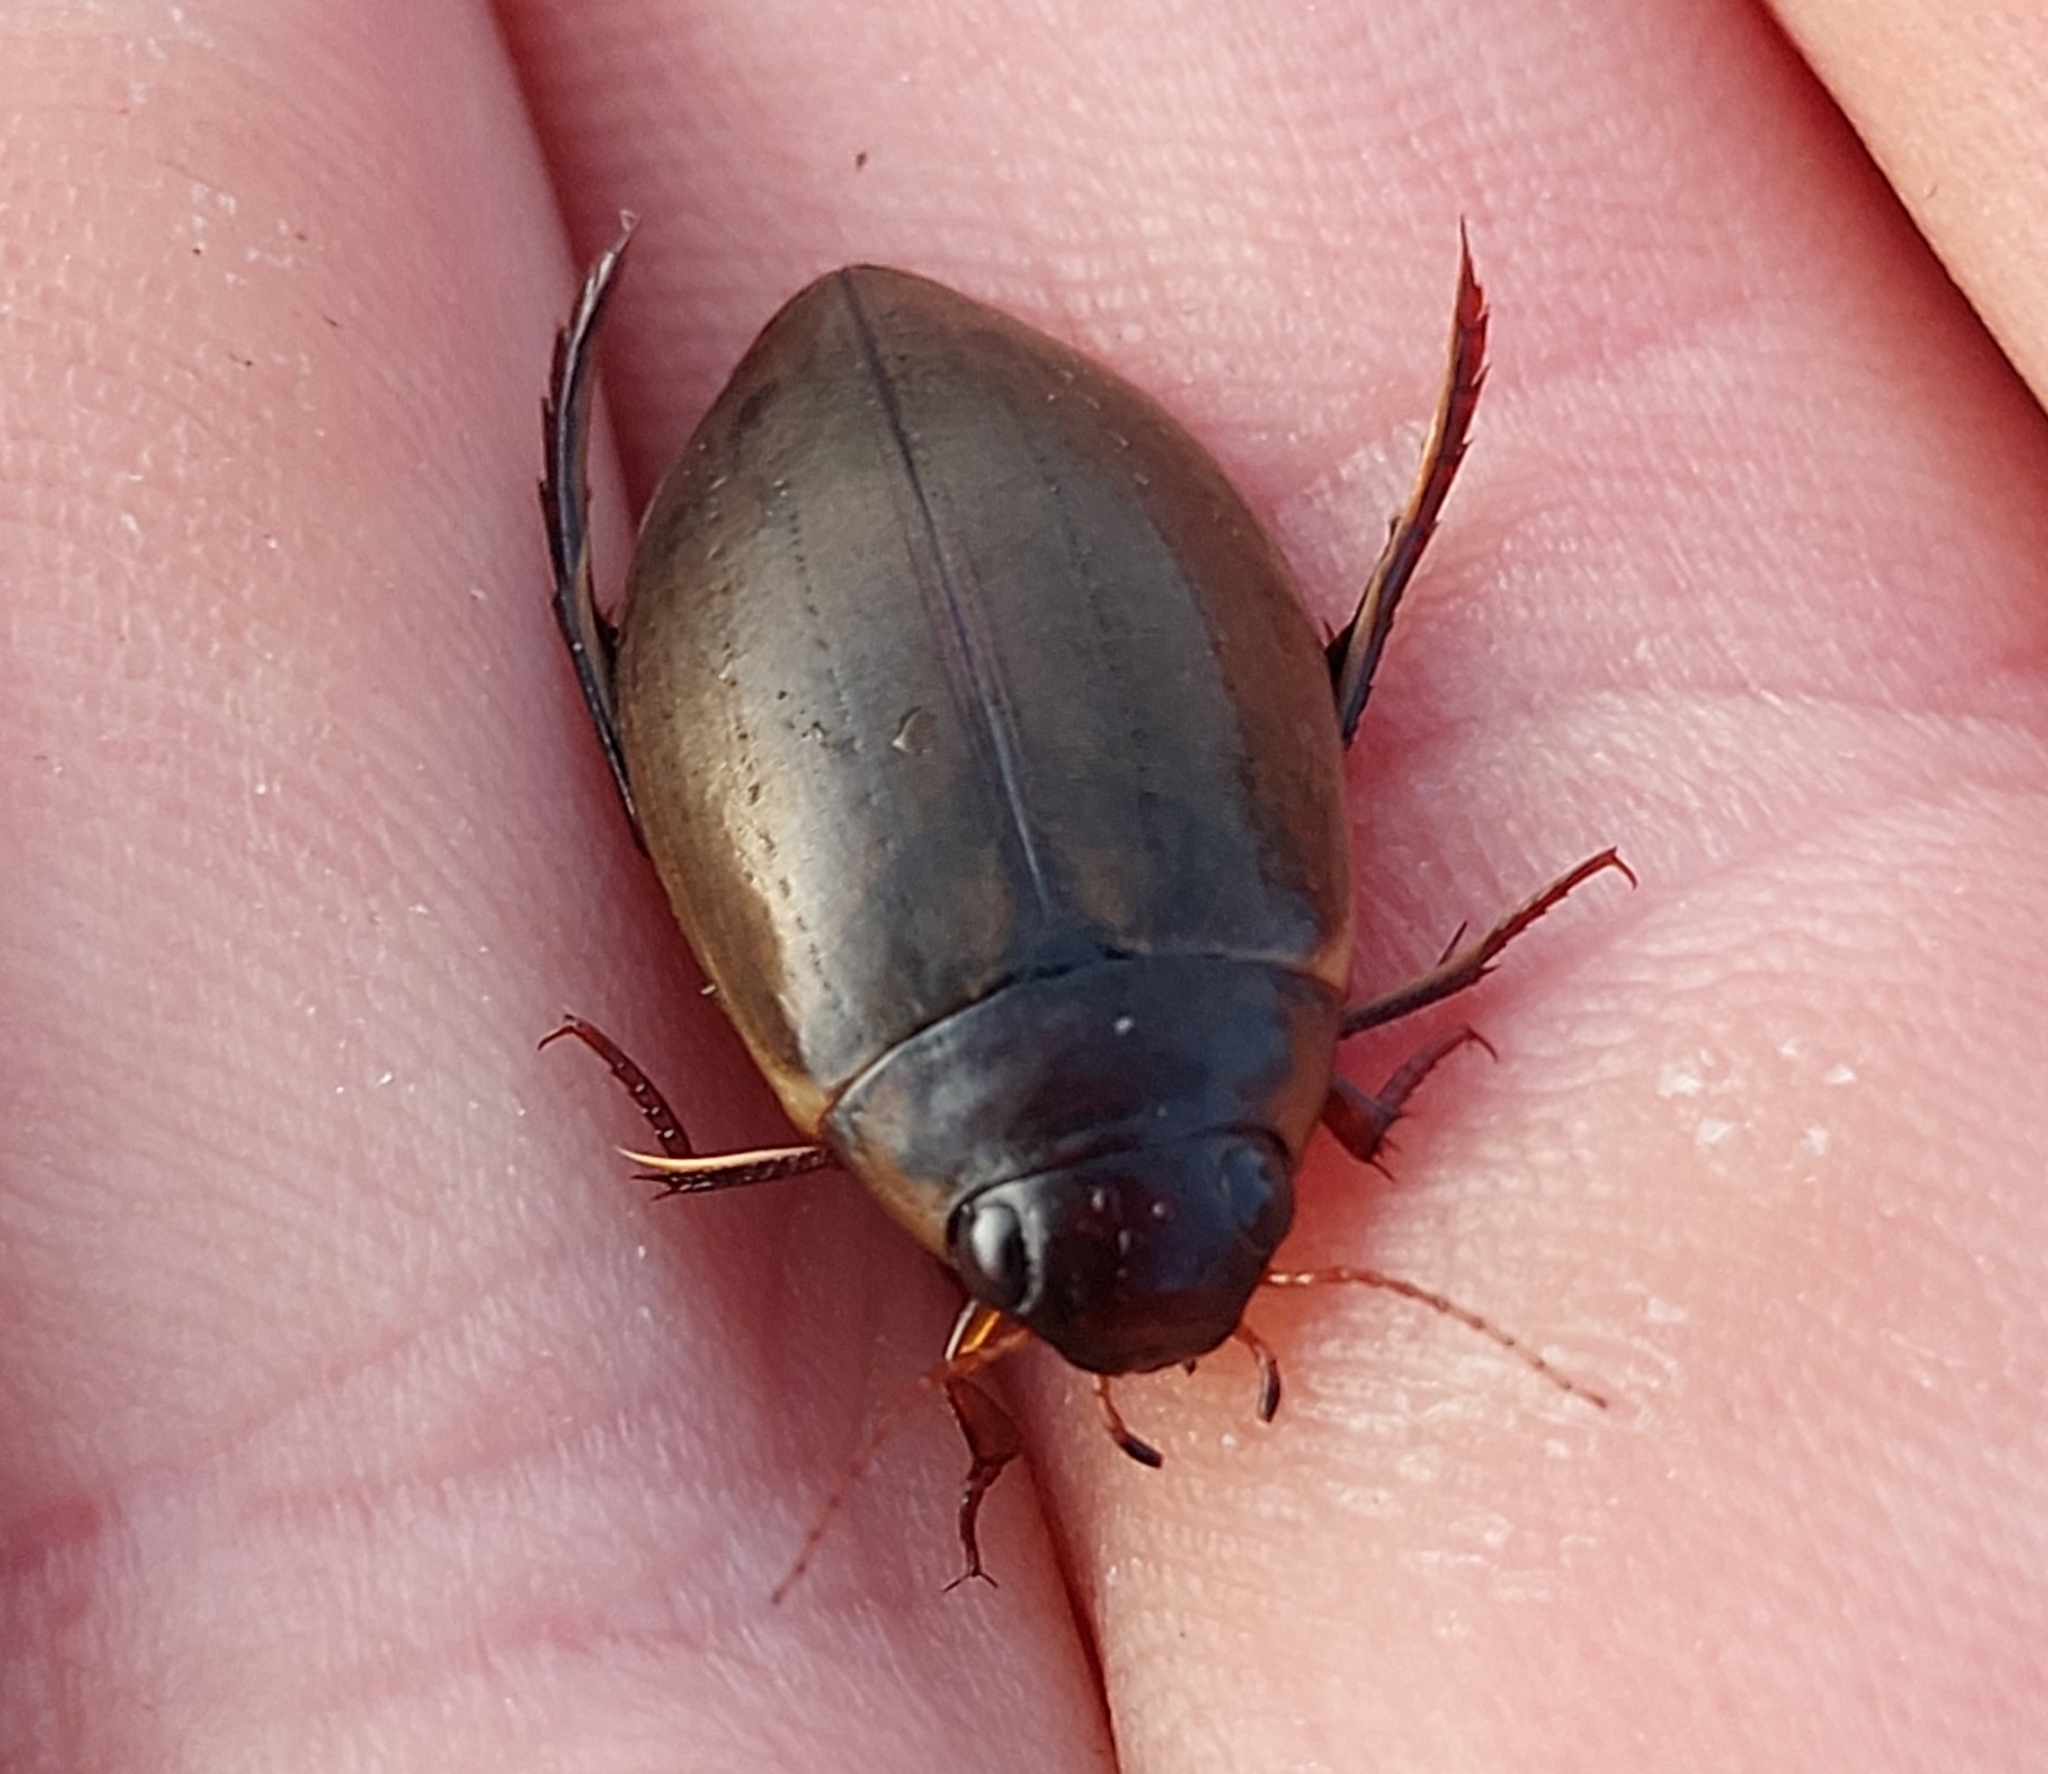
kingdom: Animalia
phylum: Arthropoda
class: Insecta
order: Coleoptera
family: Dytiscidae
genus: Colymbetes
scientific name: Colymbetes fuscus
